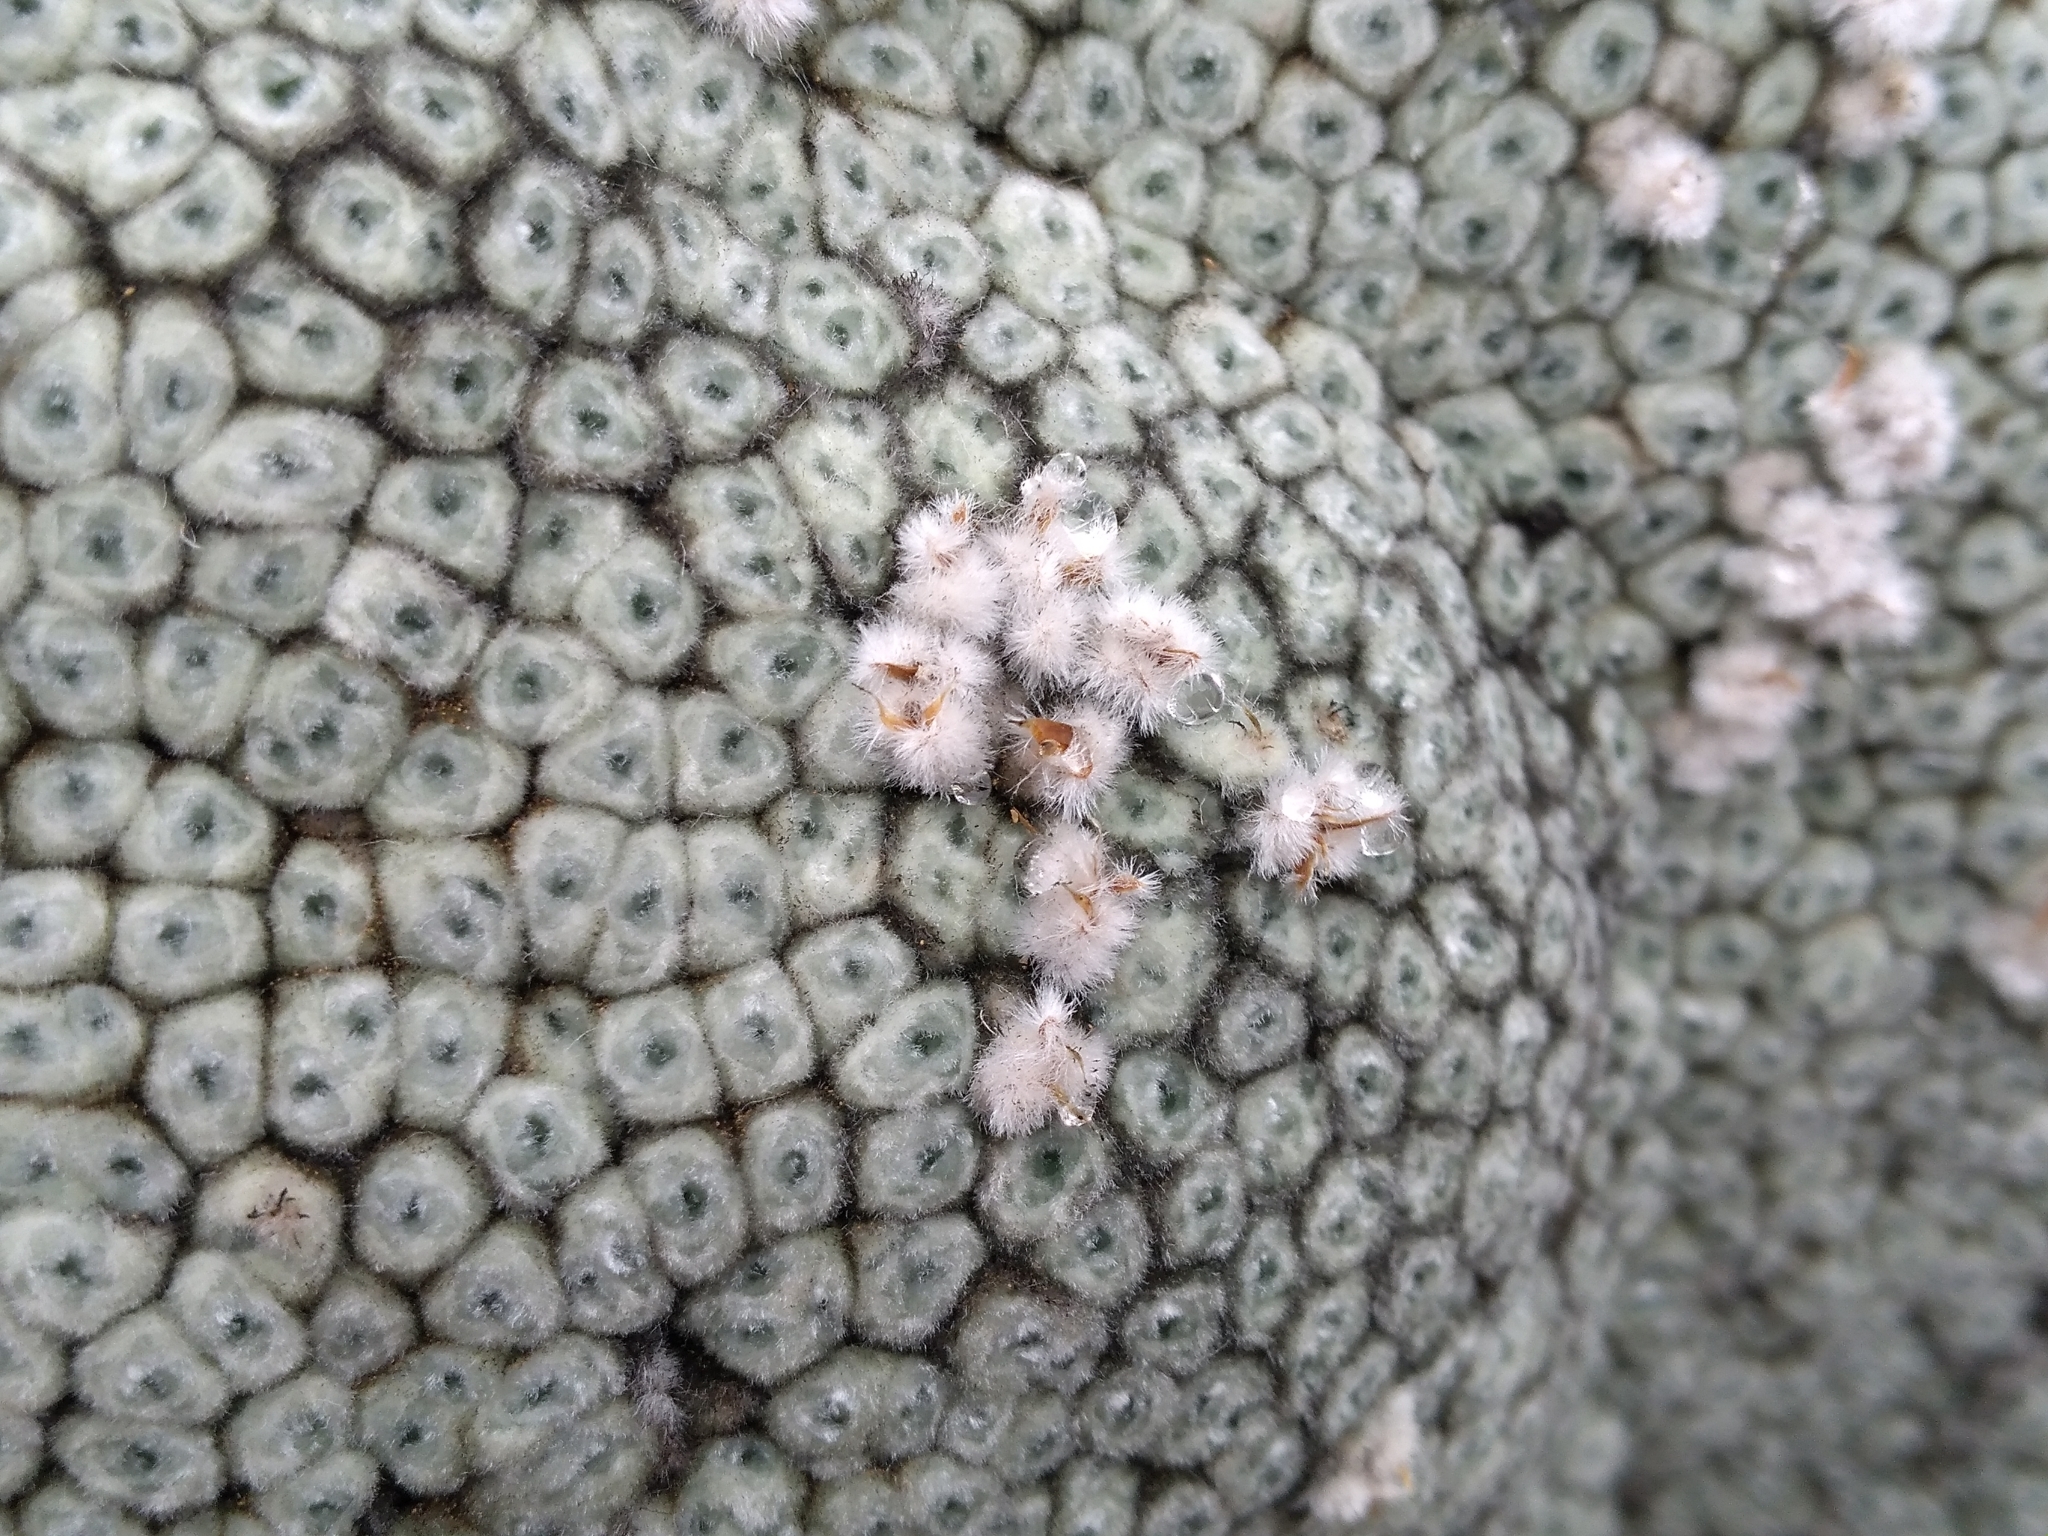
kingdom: Plantae
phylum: Tracheophyta
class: Magnoliopsida
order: Asterales
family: Asteraceae
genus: Raoulia
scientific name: Raoulia eximia
